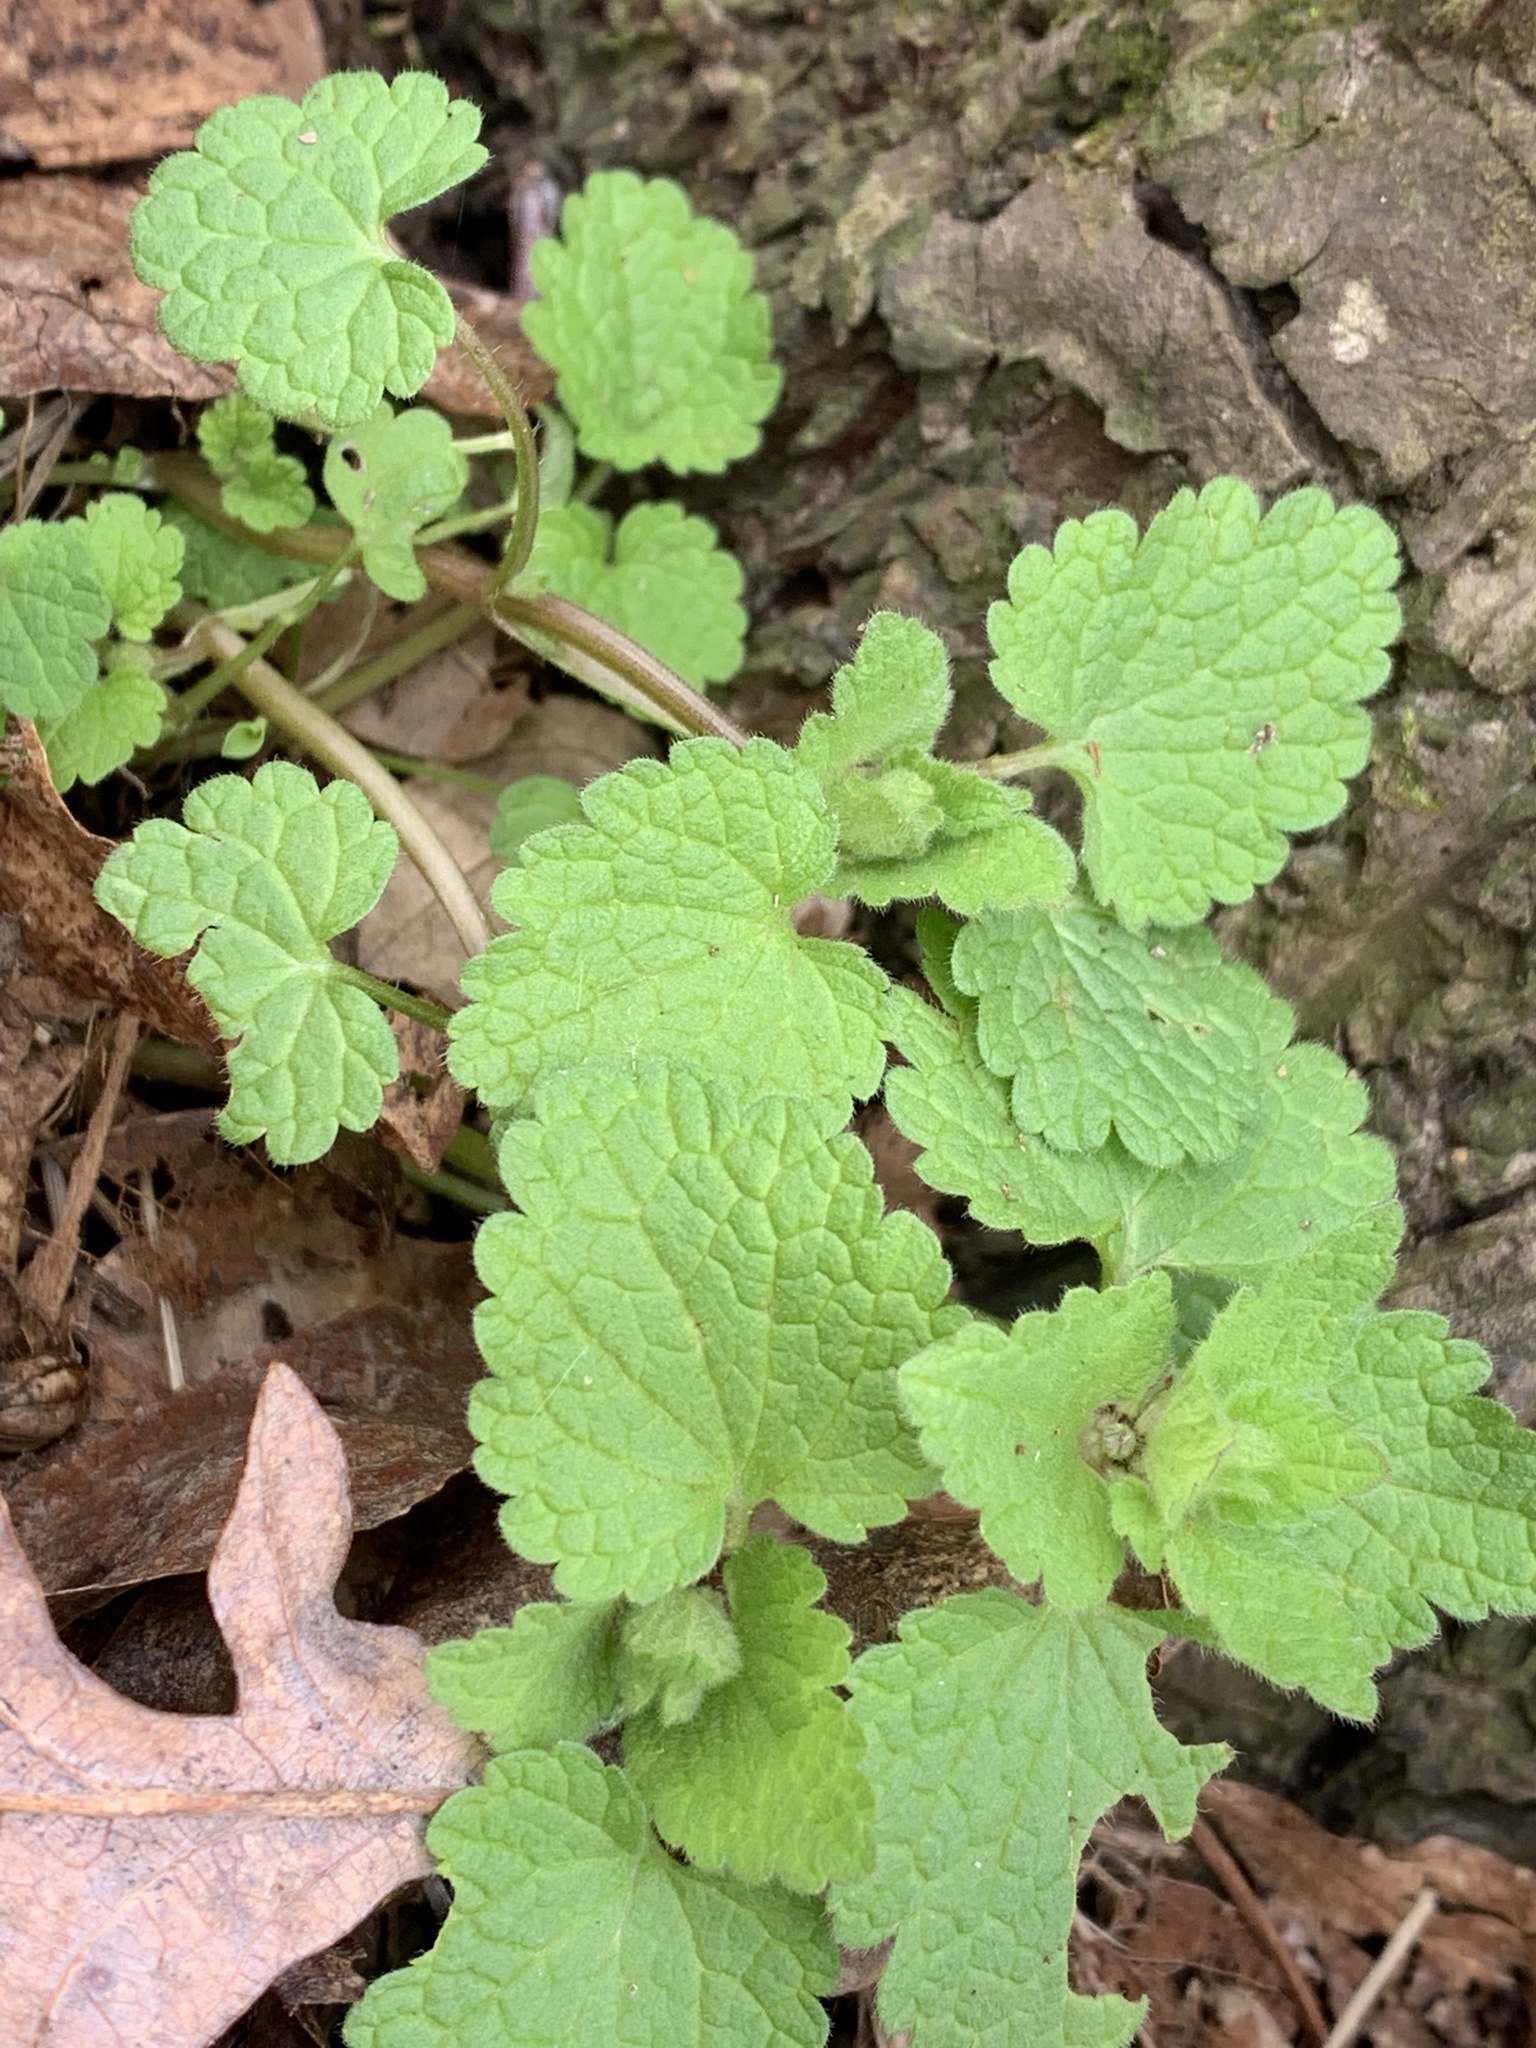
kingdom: Plantae
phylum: Tracheophyta
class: Magnoliopsida
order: Lamiales
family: Lamiaceae
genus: Lamium
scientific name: Lamium purpureum
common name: Red dead-nettle
